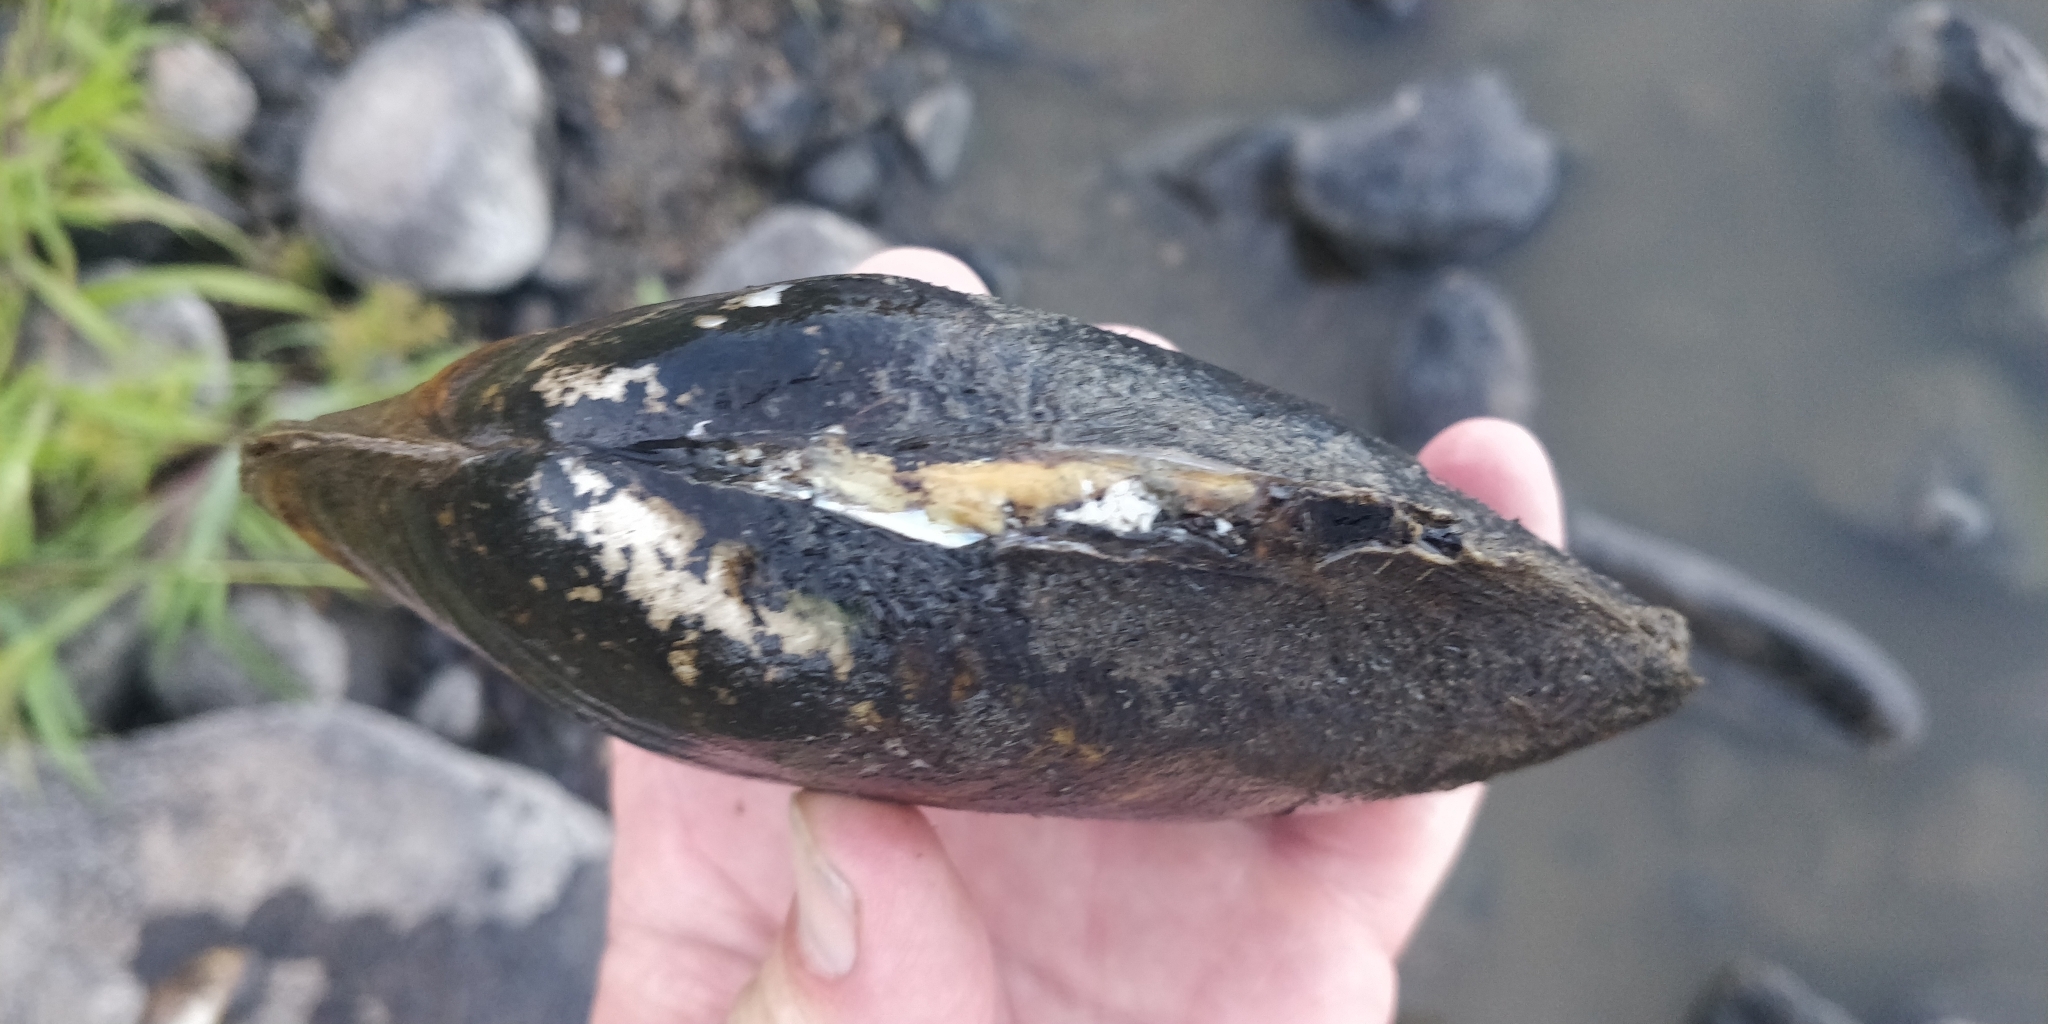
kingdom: Animalia
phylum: Mollusca
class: Bivalvia
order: Unionida
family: Unionidae
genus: Potamilus
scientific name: Potamilus fragilis
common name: Fragile papershell
